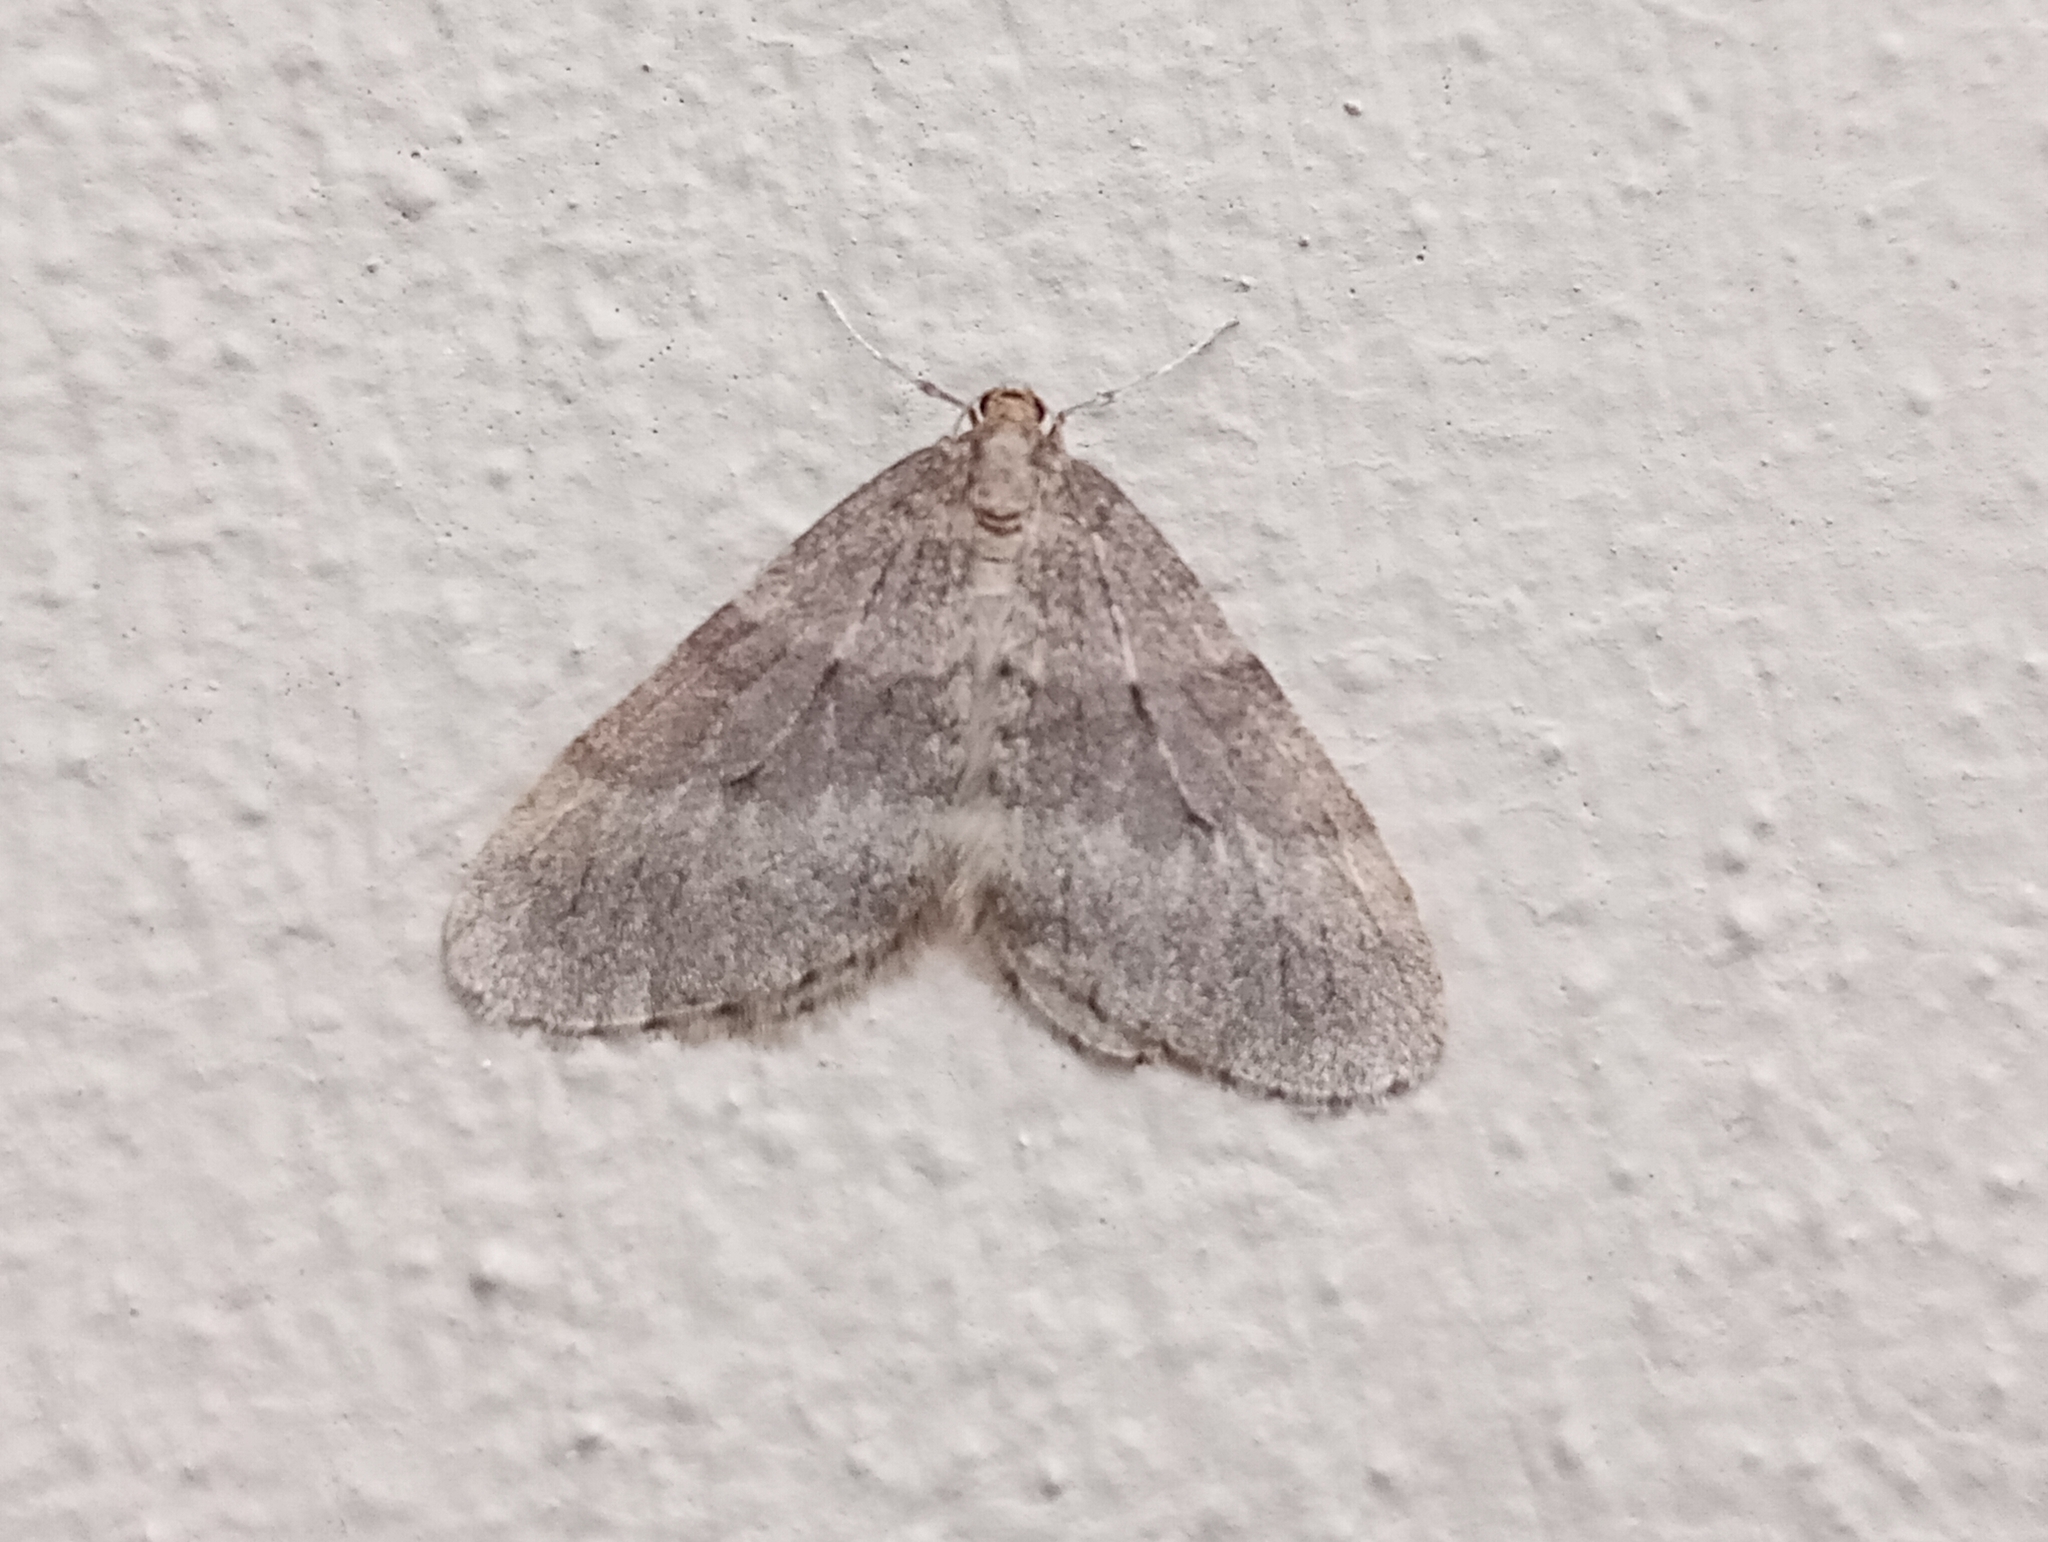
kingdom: Animalia
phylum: Arthropoda
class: Insecta
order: Lepidoptera
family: Geometridae
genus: Operophtera
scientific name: Operophtera brumata
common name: Winter moth
